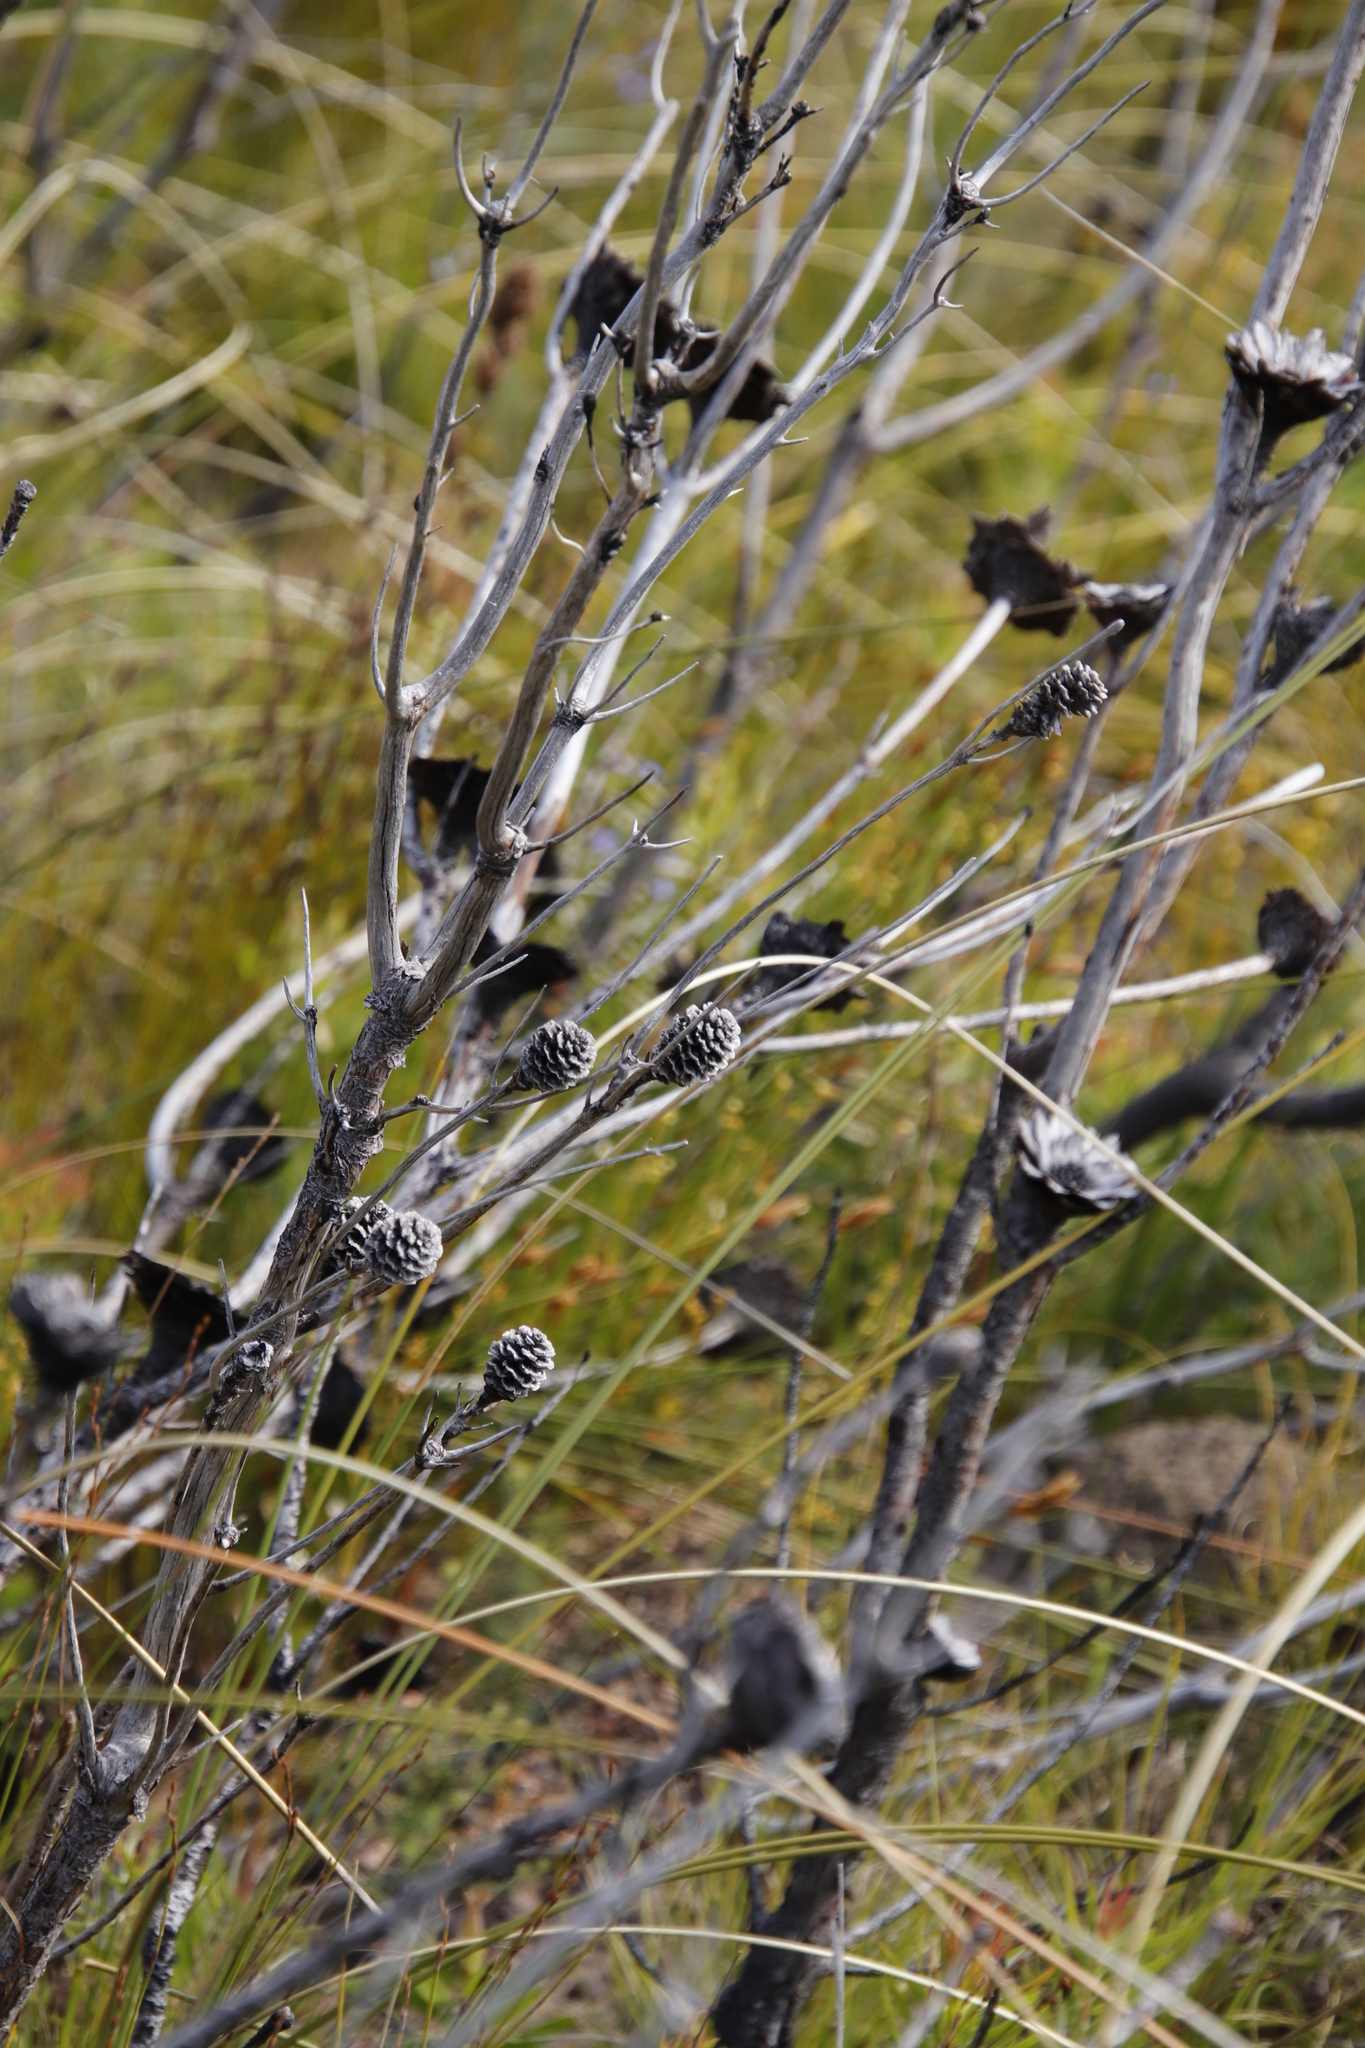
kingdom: Plantae
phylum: Tracheophyta
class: Magnoliopsida
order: Proteales
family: Proteaceae
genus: Leucadendron
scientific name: Leucadendron xanthoconus
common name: Sickle-leaf conebush
